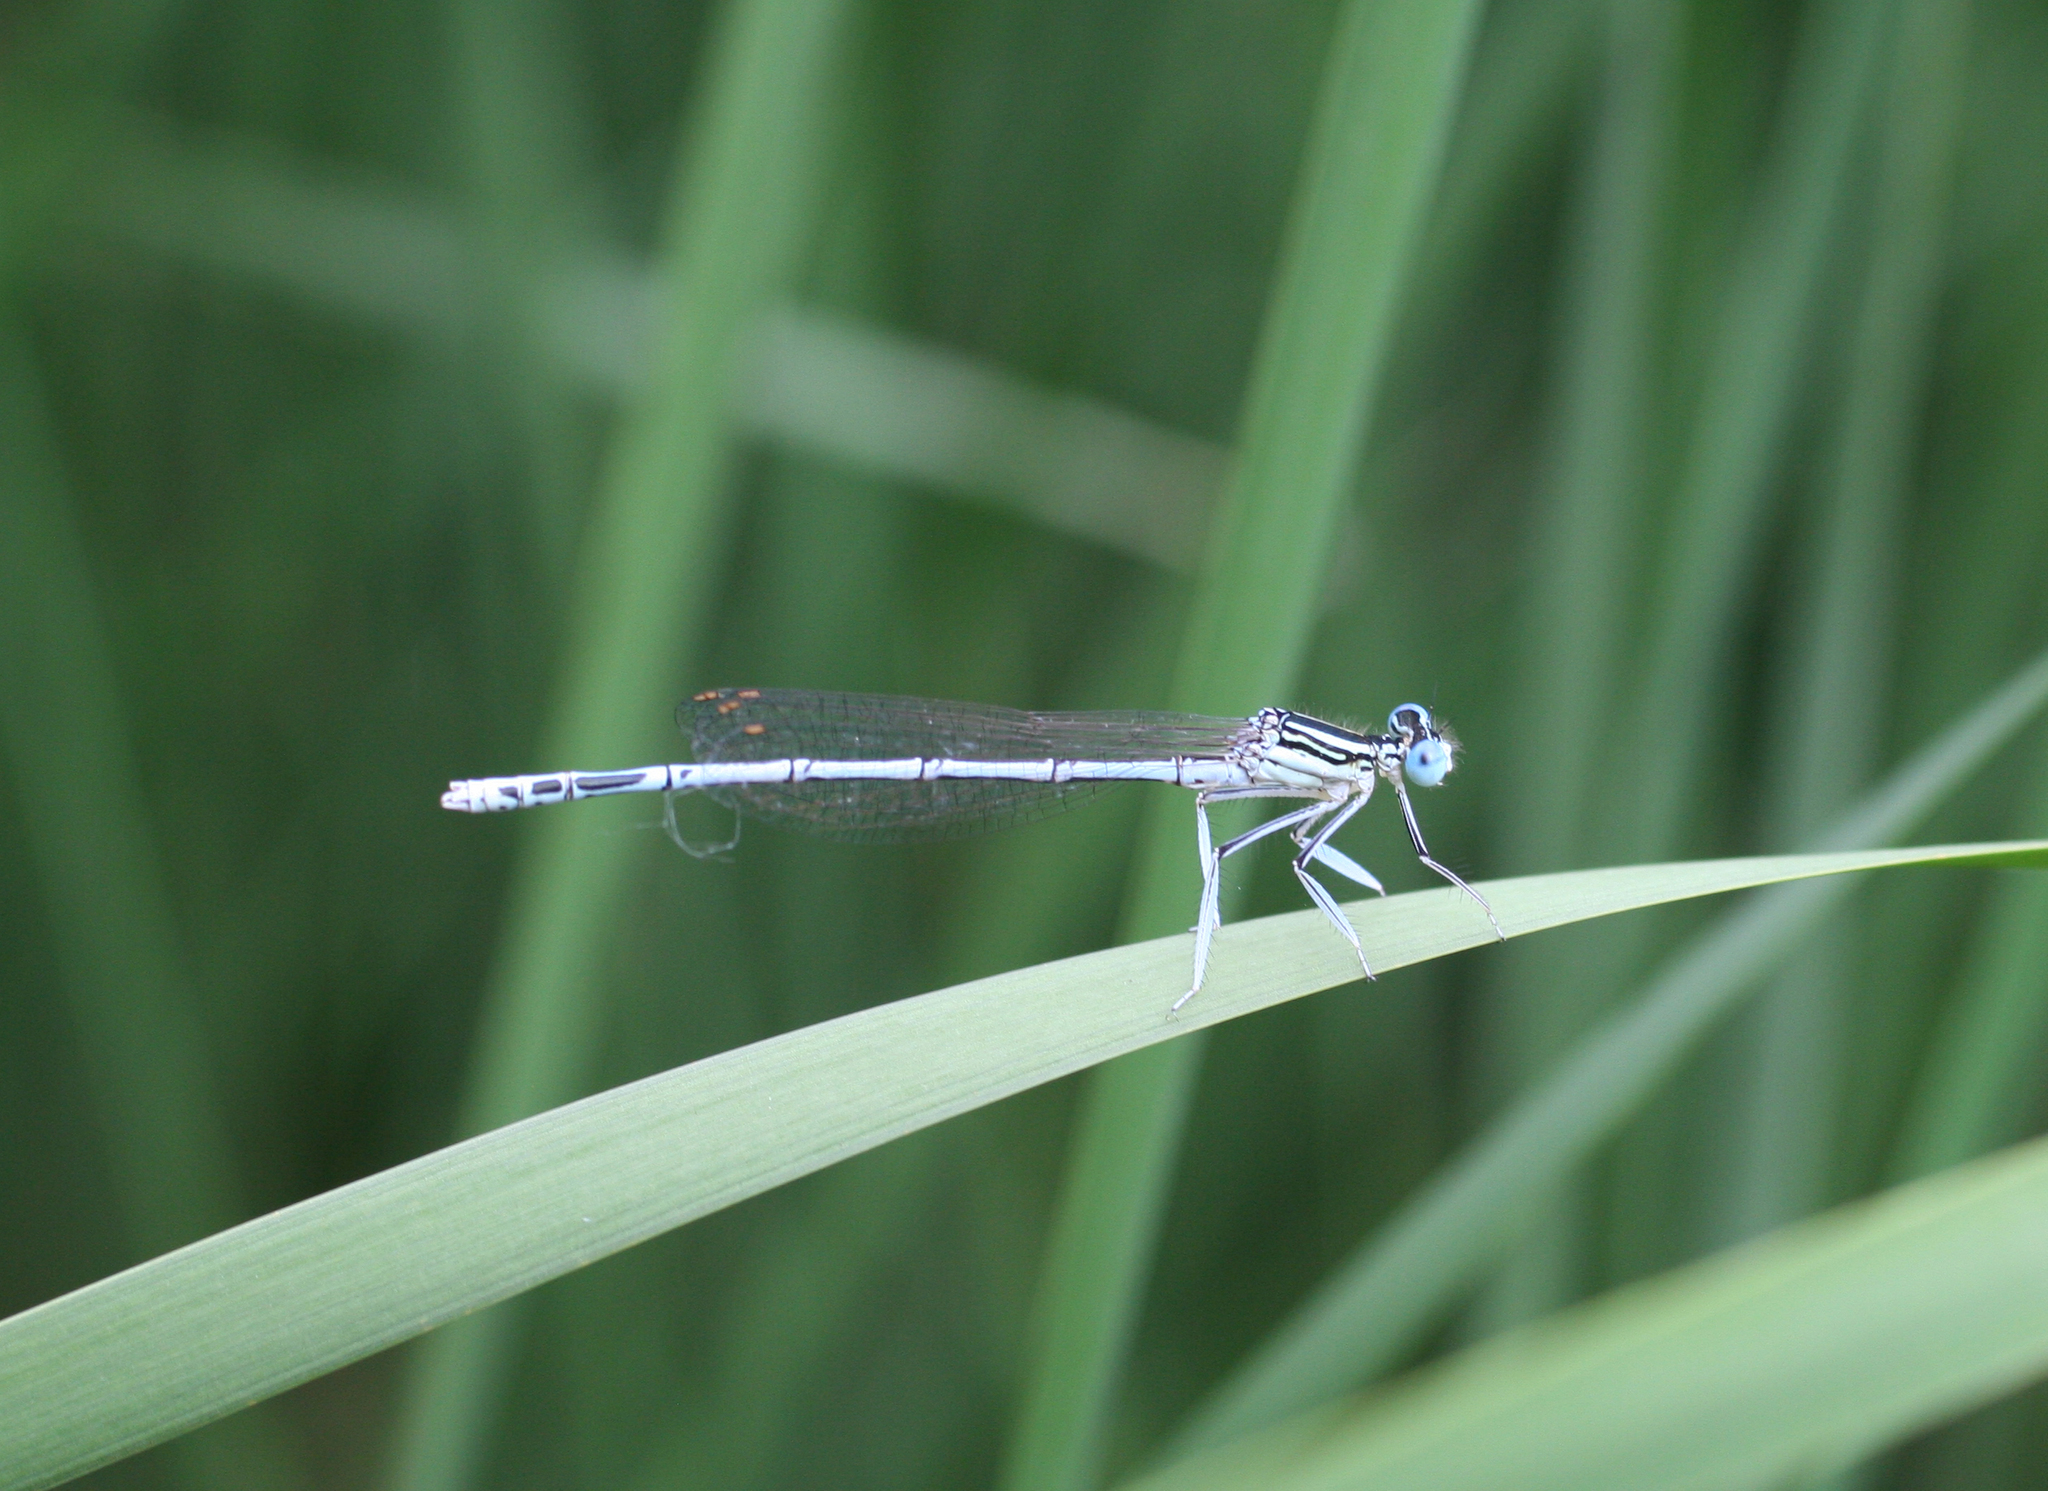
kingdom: Animalia
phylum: Arthropoda
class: Insecta
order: Odonata
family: Platycnemididae
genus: Platycnemis
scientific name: Platycnemis pennipes
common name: White-legged damselfly
